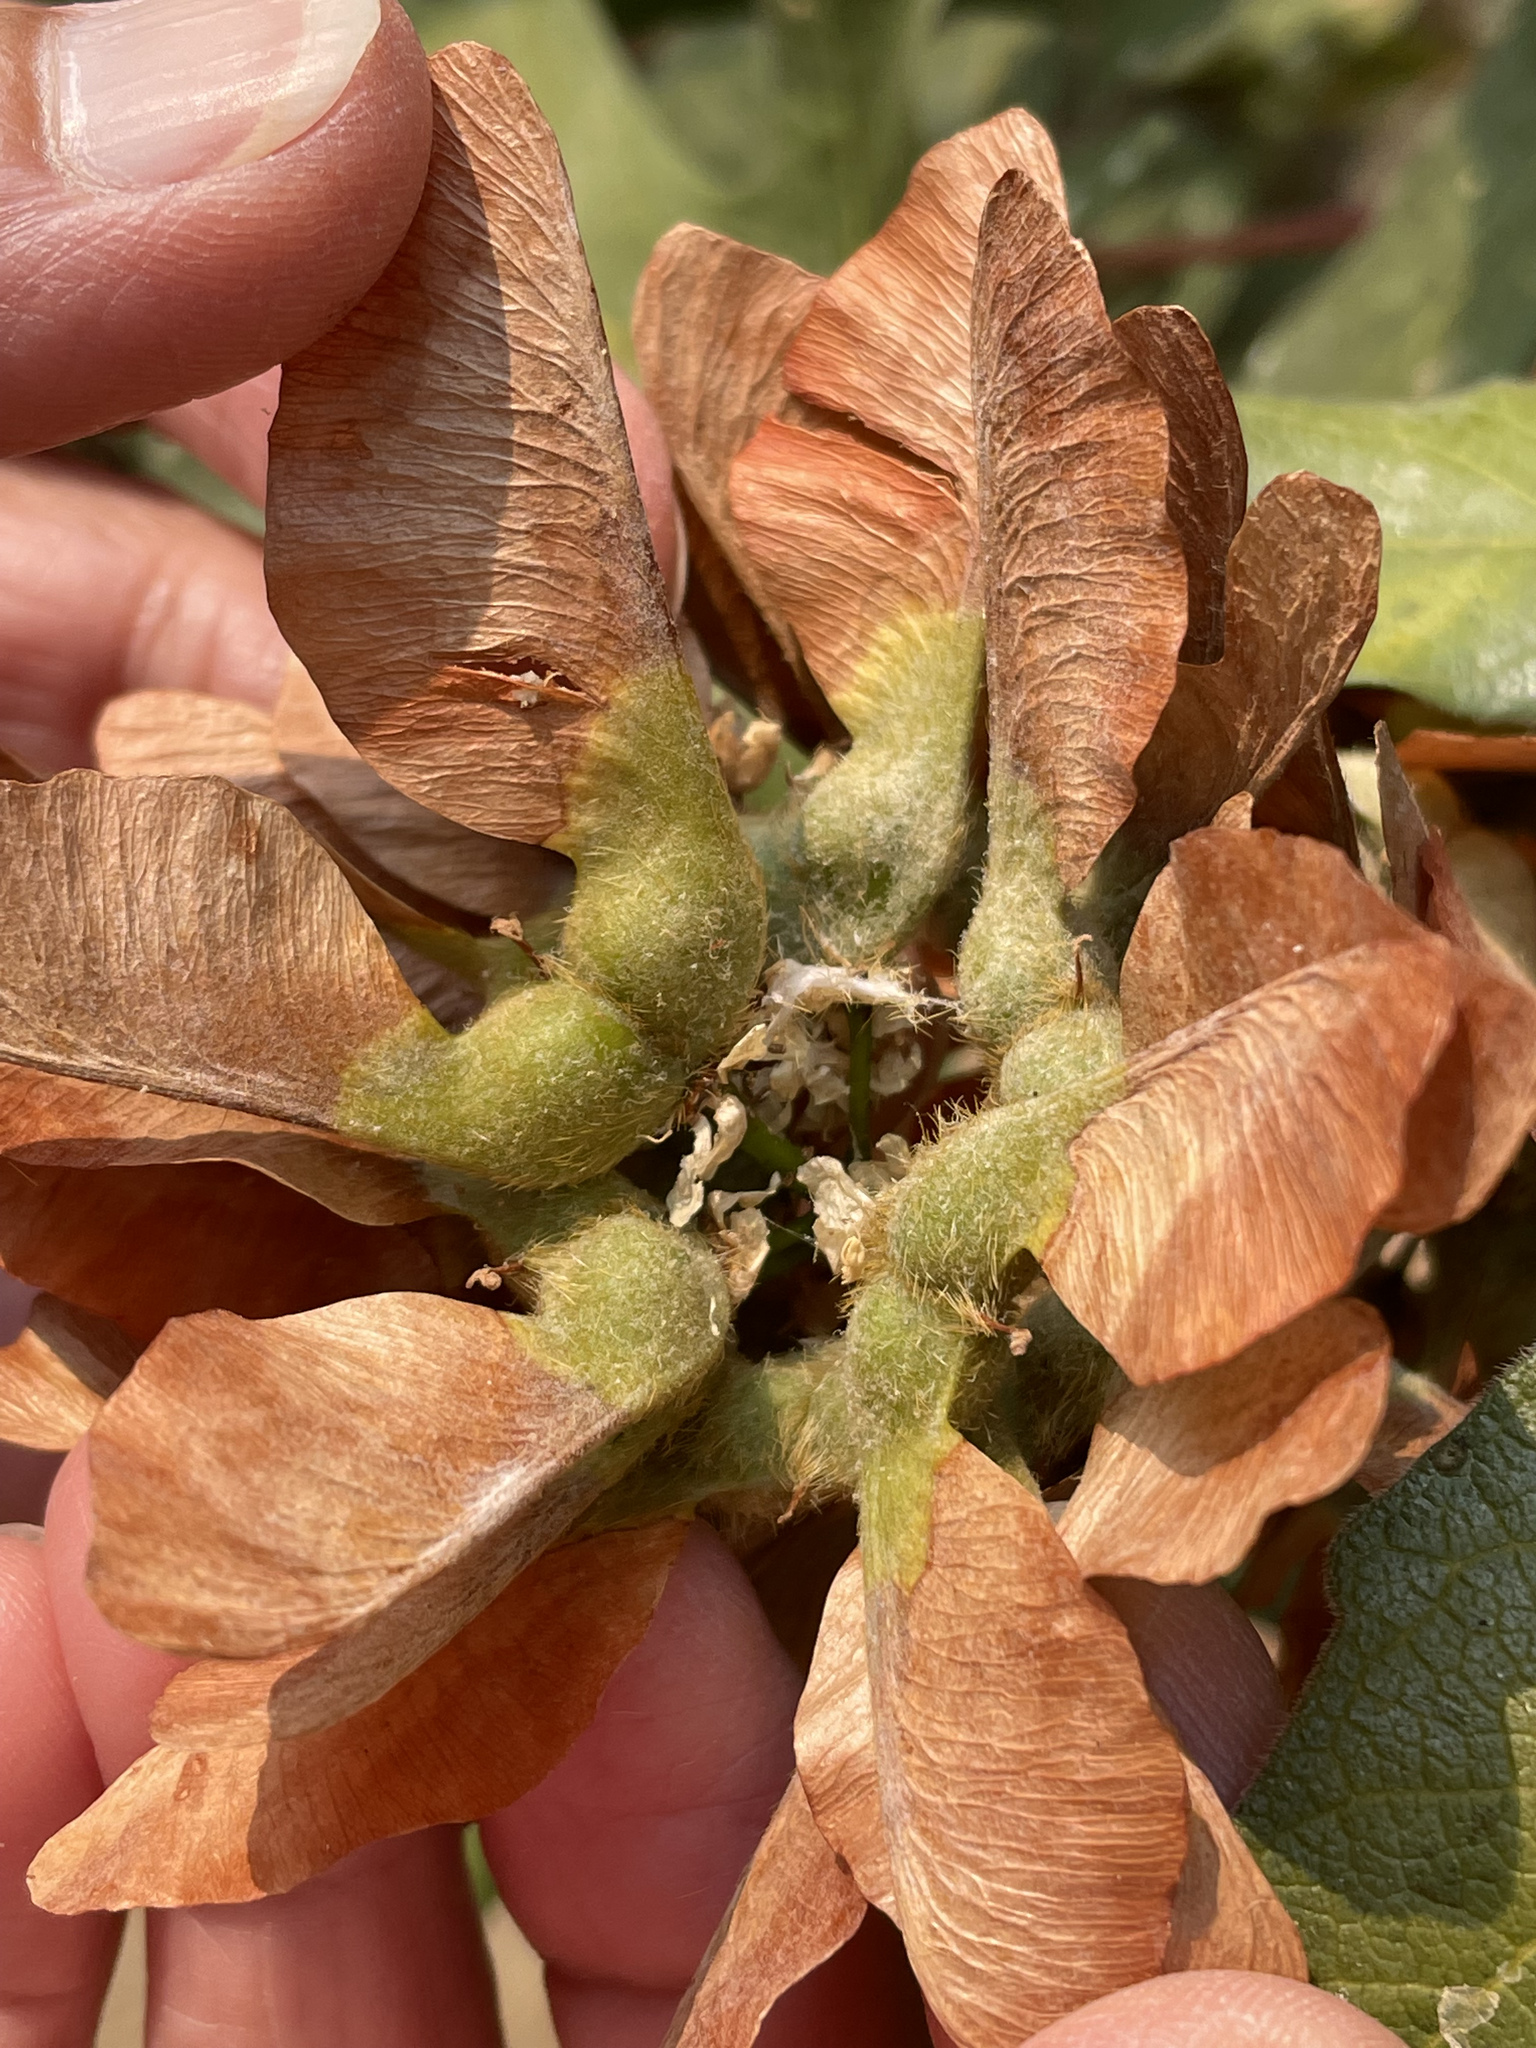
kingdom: Plantae
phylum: Tracheophyta
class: Magnoliopsida
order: Sapindales
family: Sapindaceae
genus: Acer
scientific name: Acer macrophyllum
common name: Oregon maple
